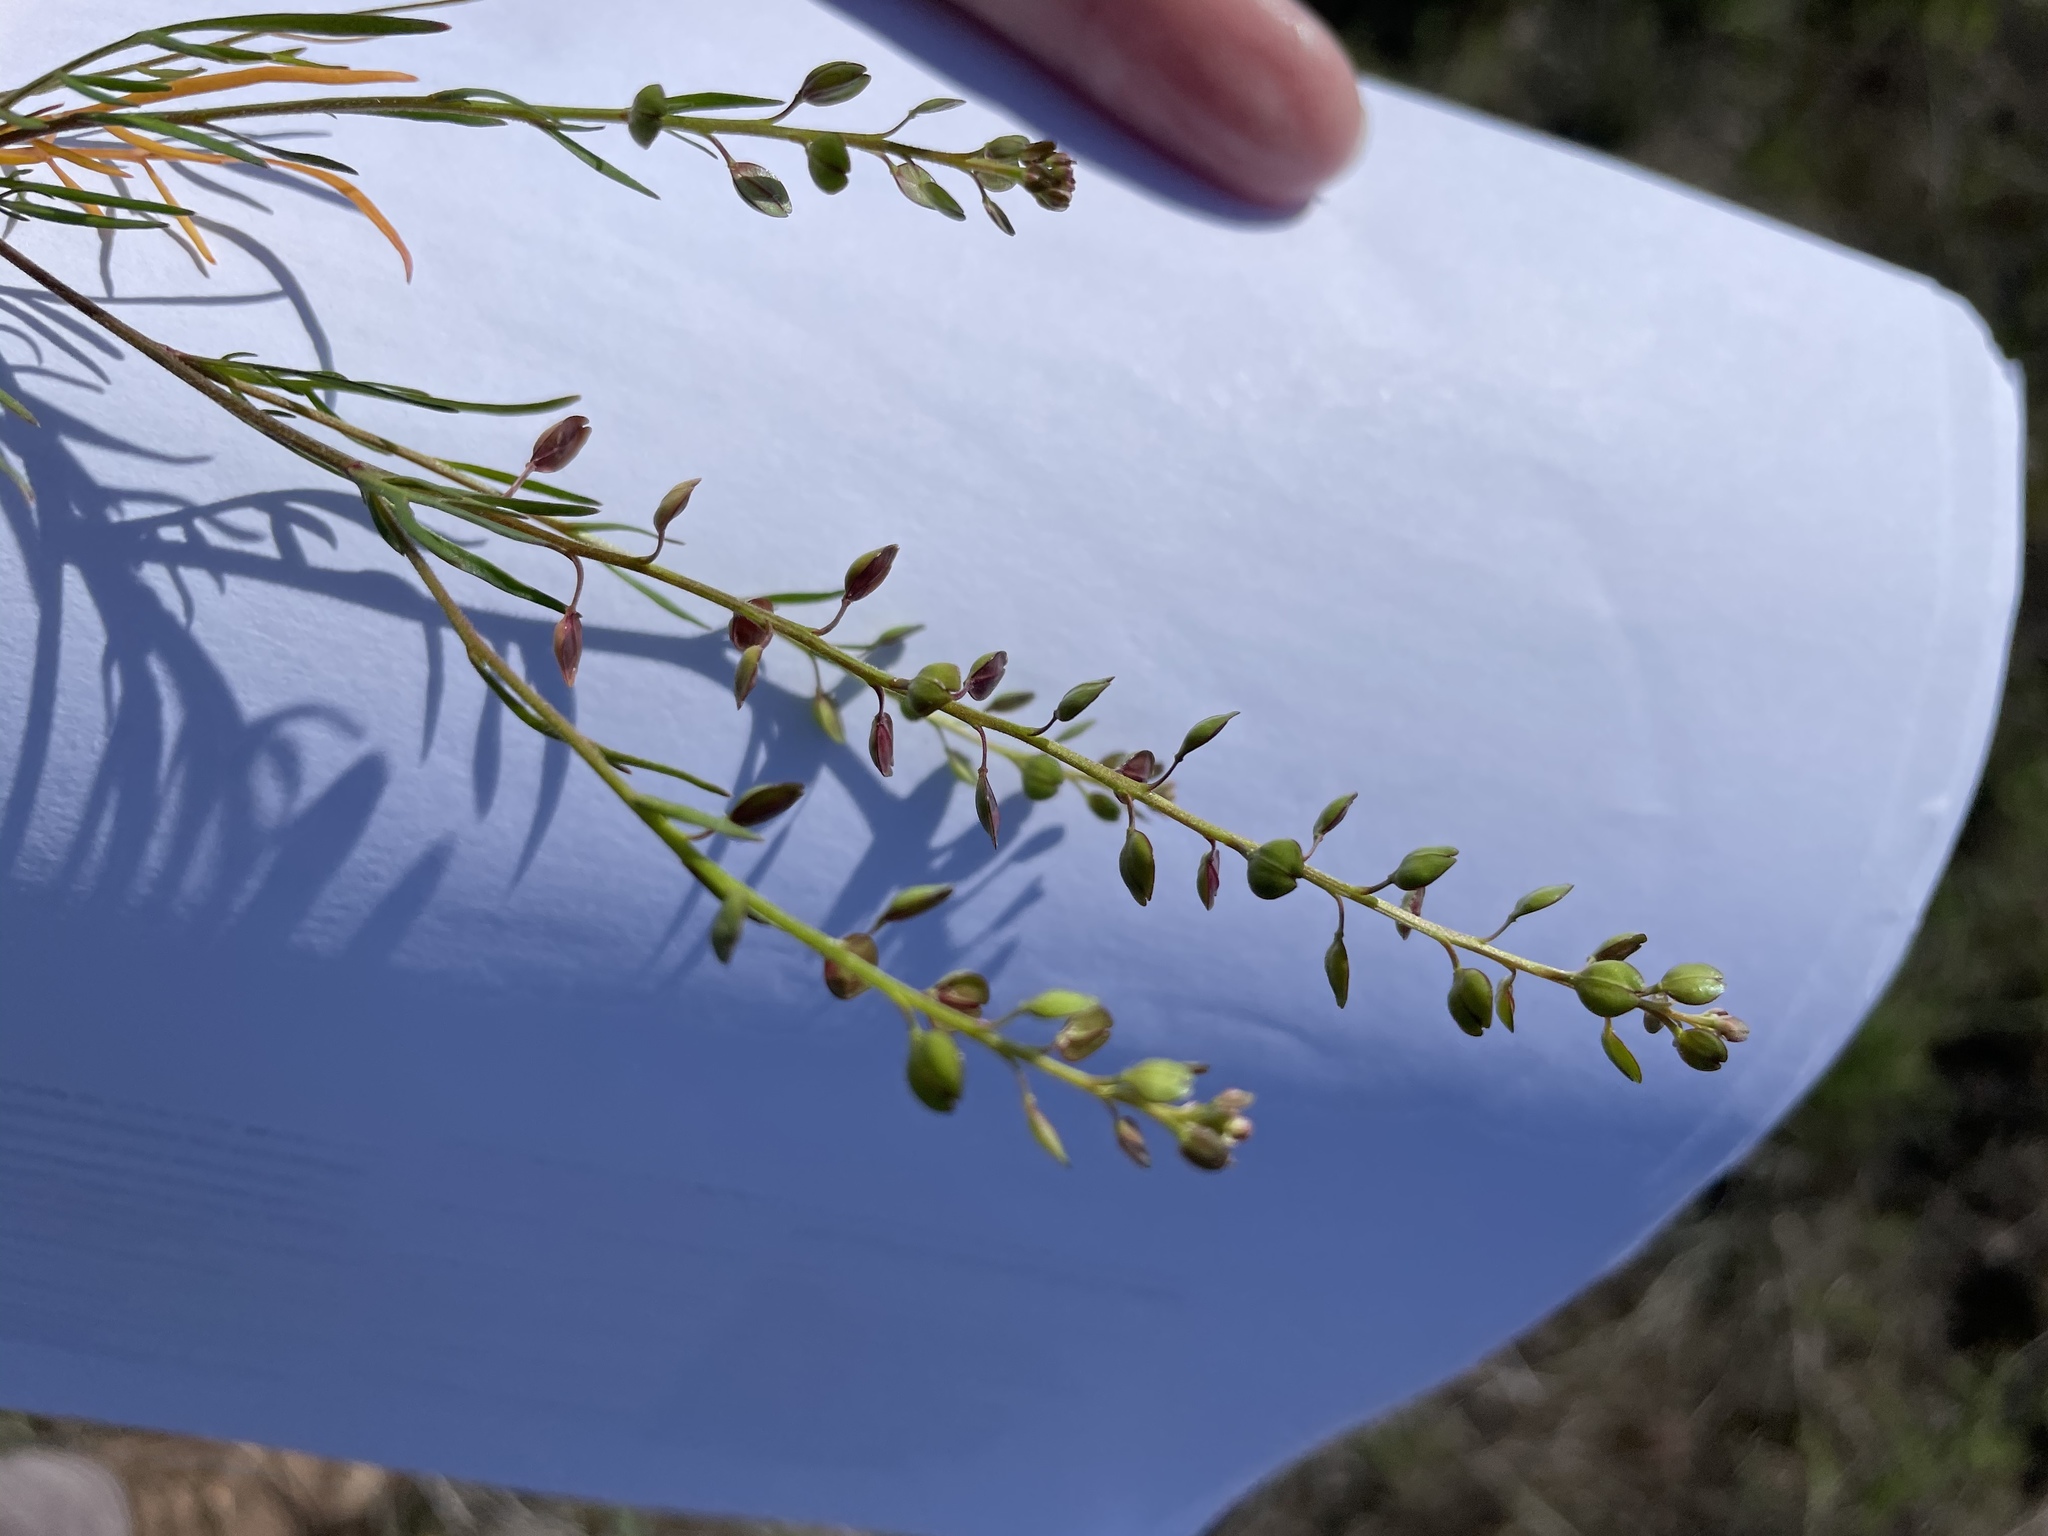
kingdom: Plantae
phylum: Tracheophyta
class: Magnoliopsida
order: Brassicales
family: Brassicaceae
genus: Lepidium
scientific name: Lepidium nitidum
